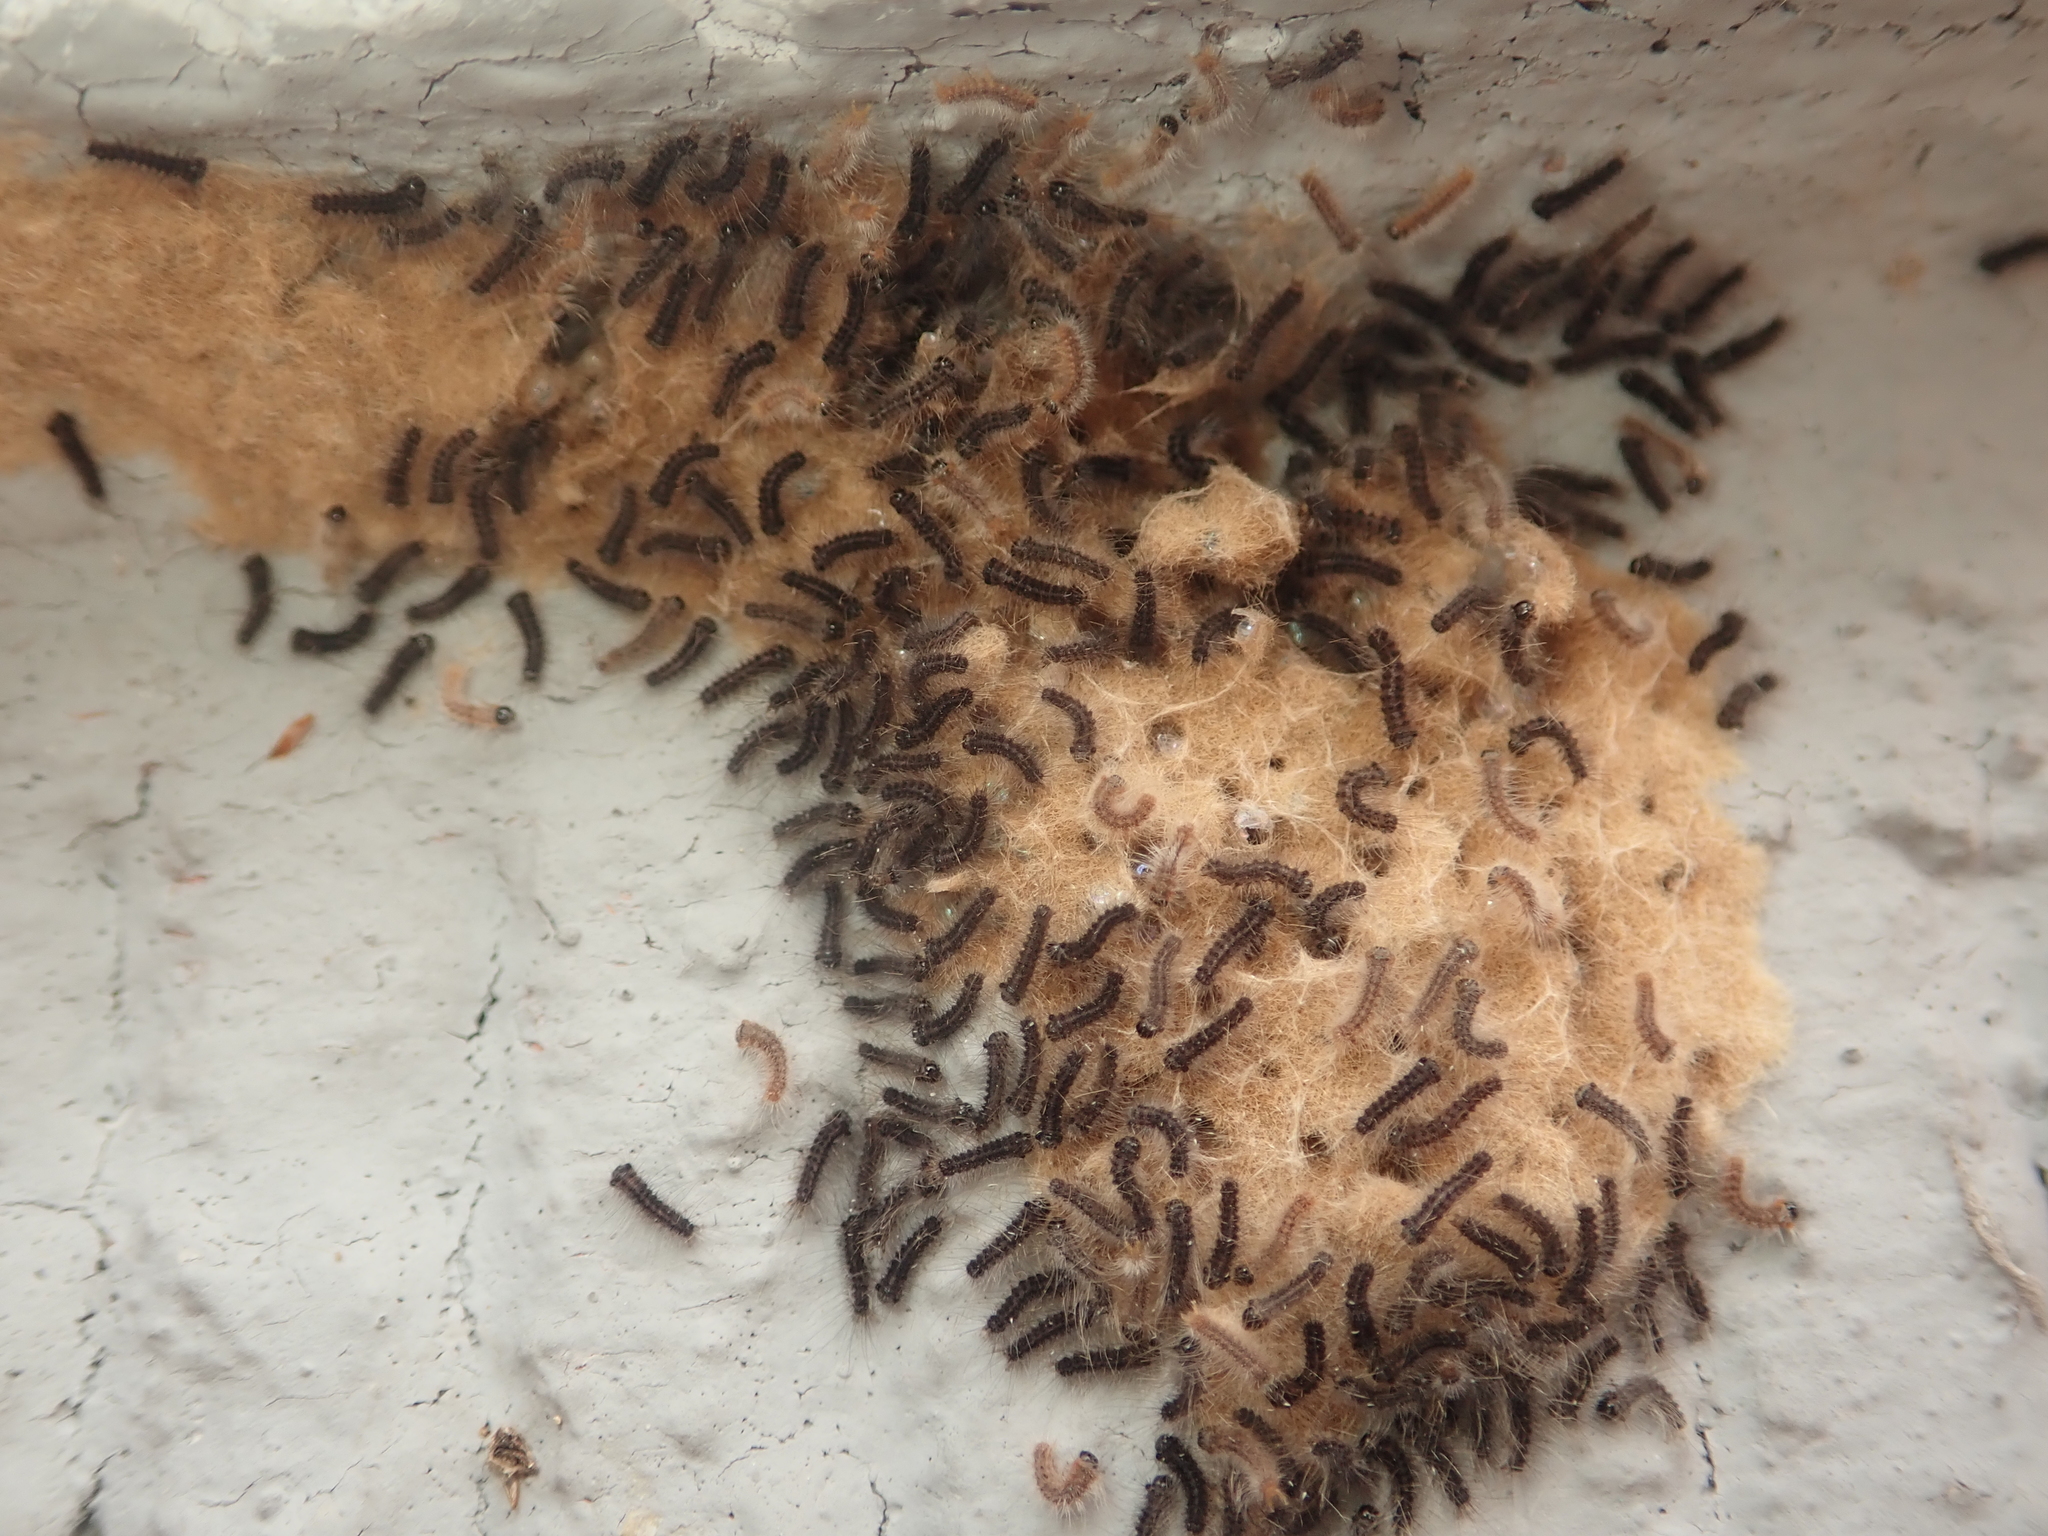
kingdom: Animalia
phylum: Arthropoda
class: Insecta
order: Lepidoptera
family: Erebidae
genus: Lymantria
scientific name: Lymantria dispar
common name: Gypsy moth
